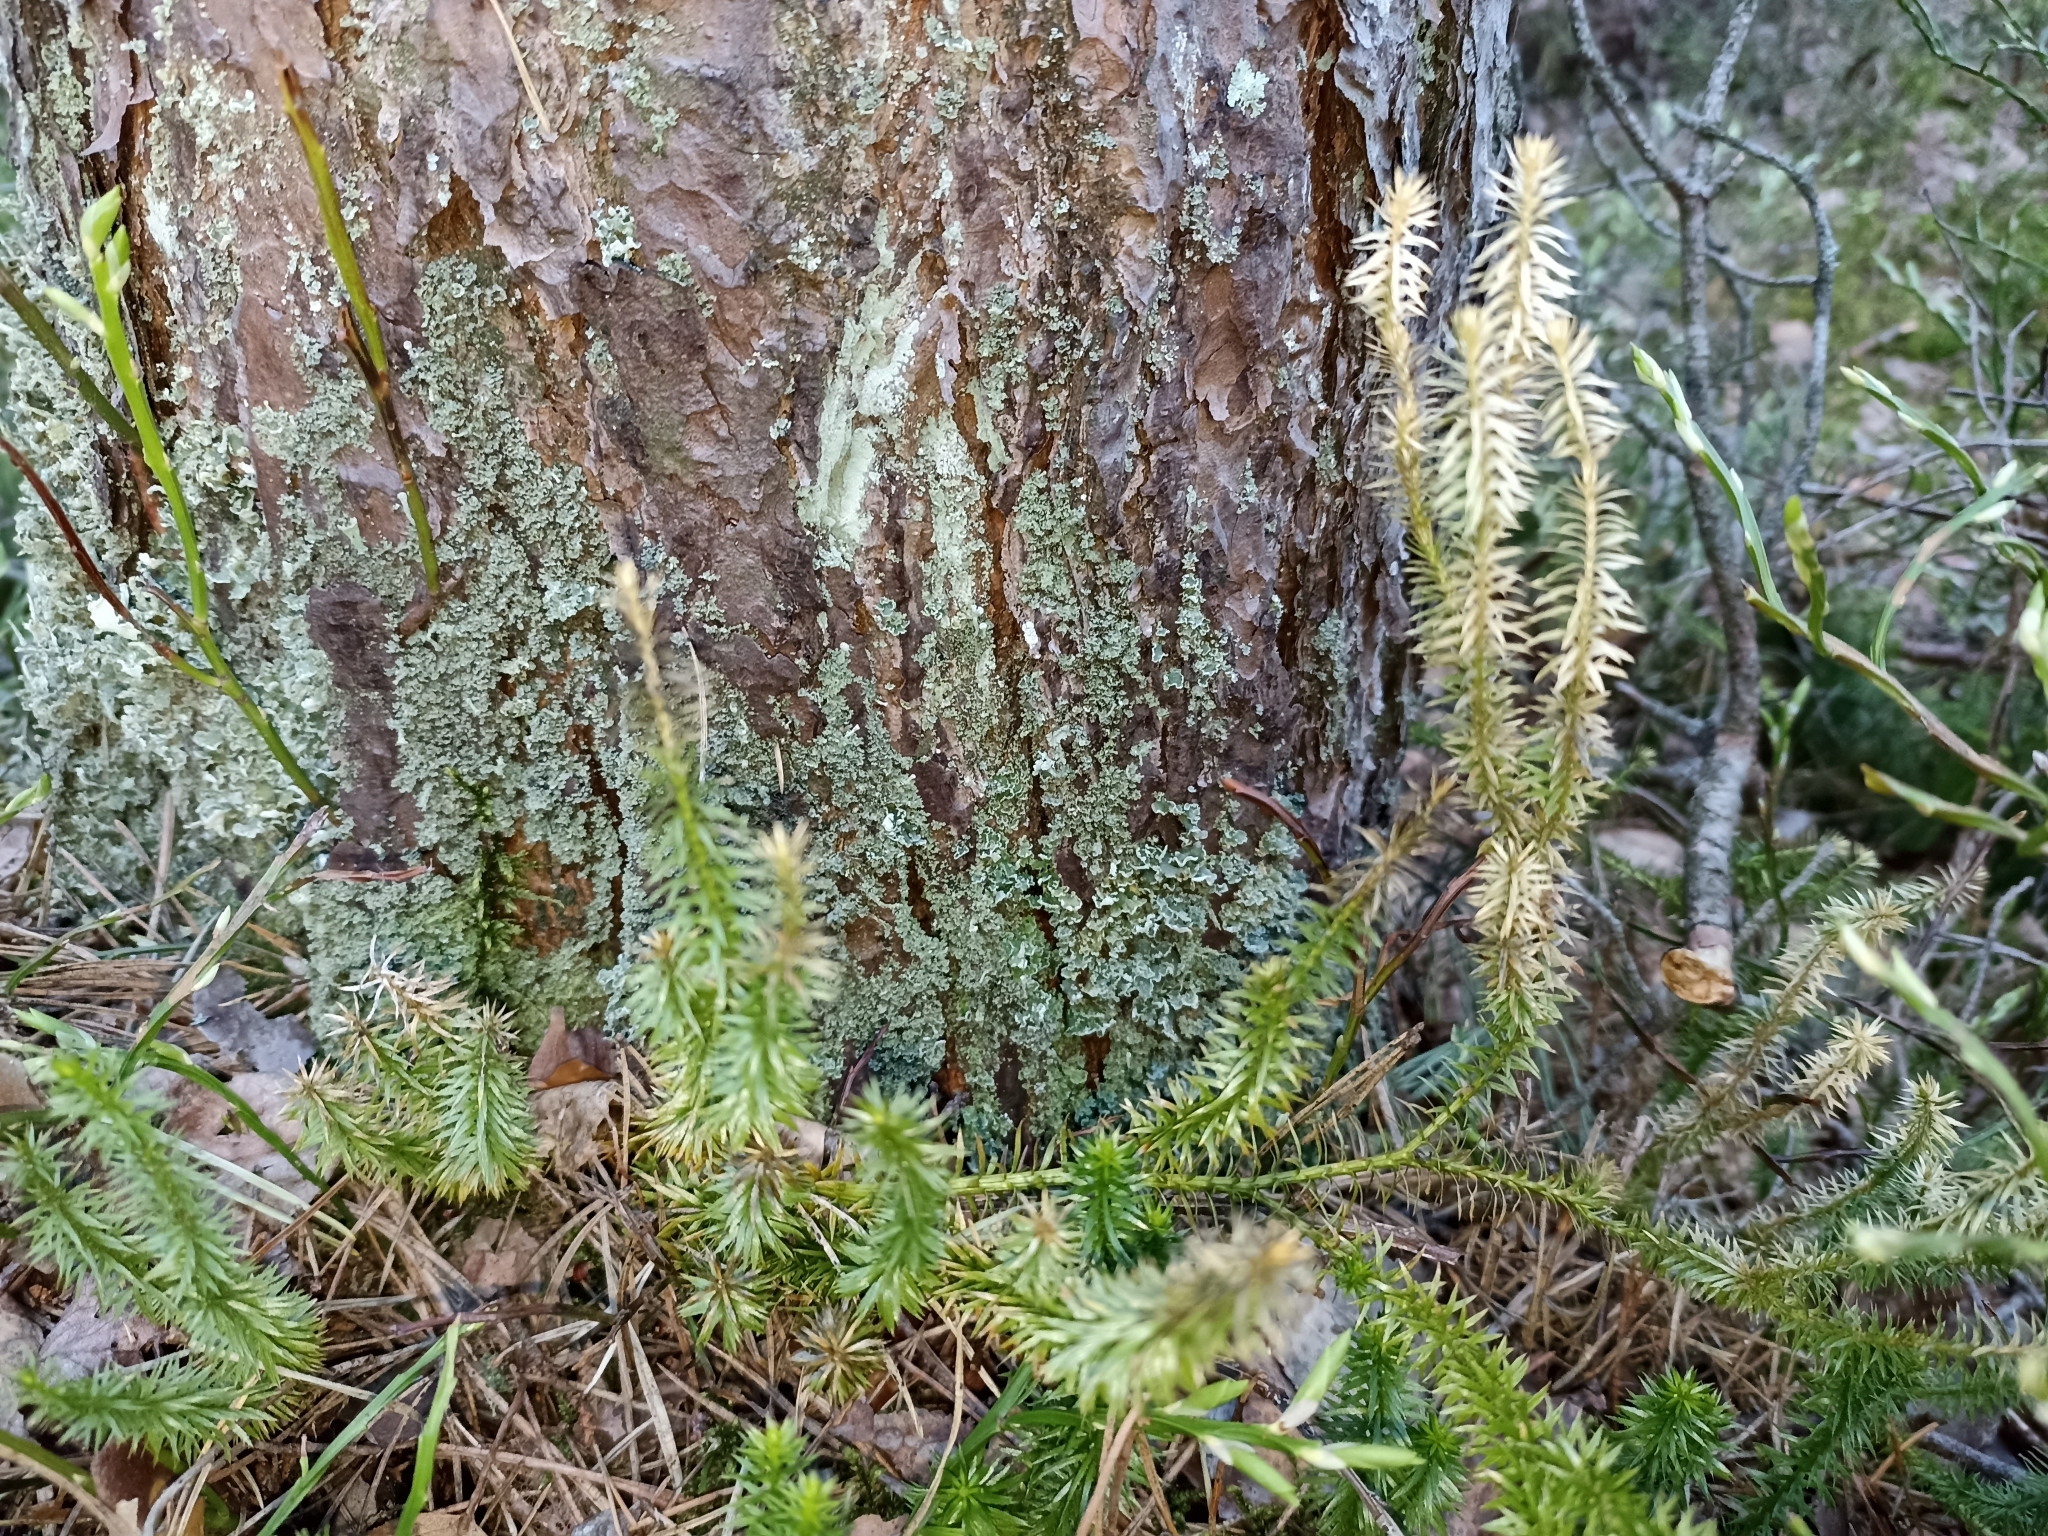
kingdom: Plantae
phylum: Tracheophyta
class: Lycopodiopsida
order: Lycopodiales
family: Lycopodiaceae
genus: Spinulum
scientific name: Spinulum annotinum
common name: Interrupted club-moss
